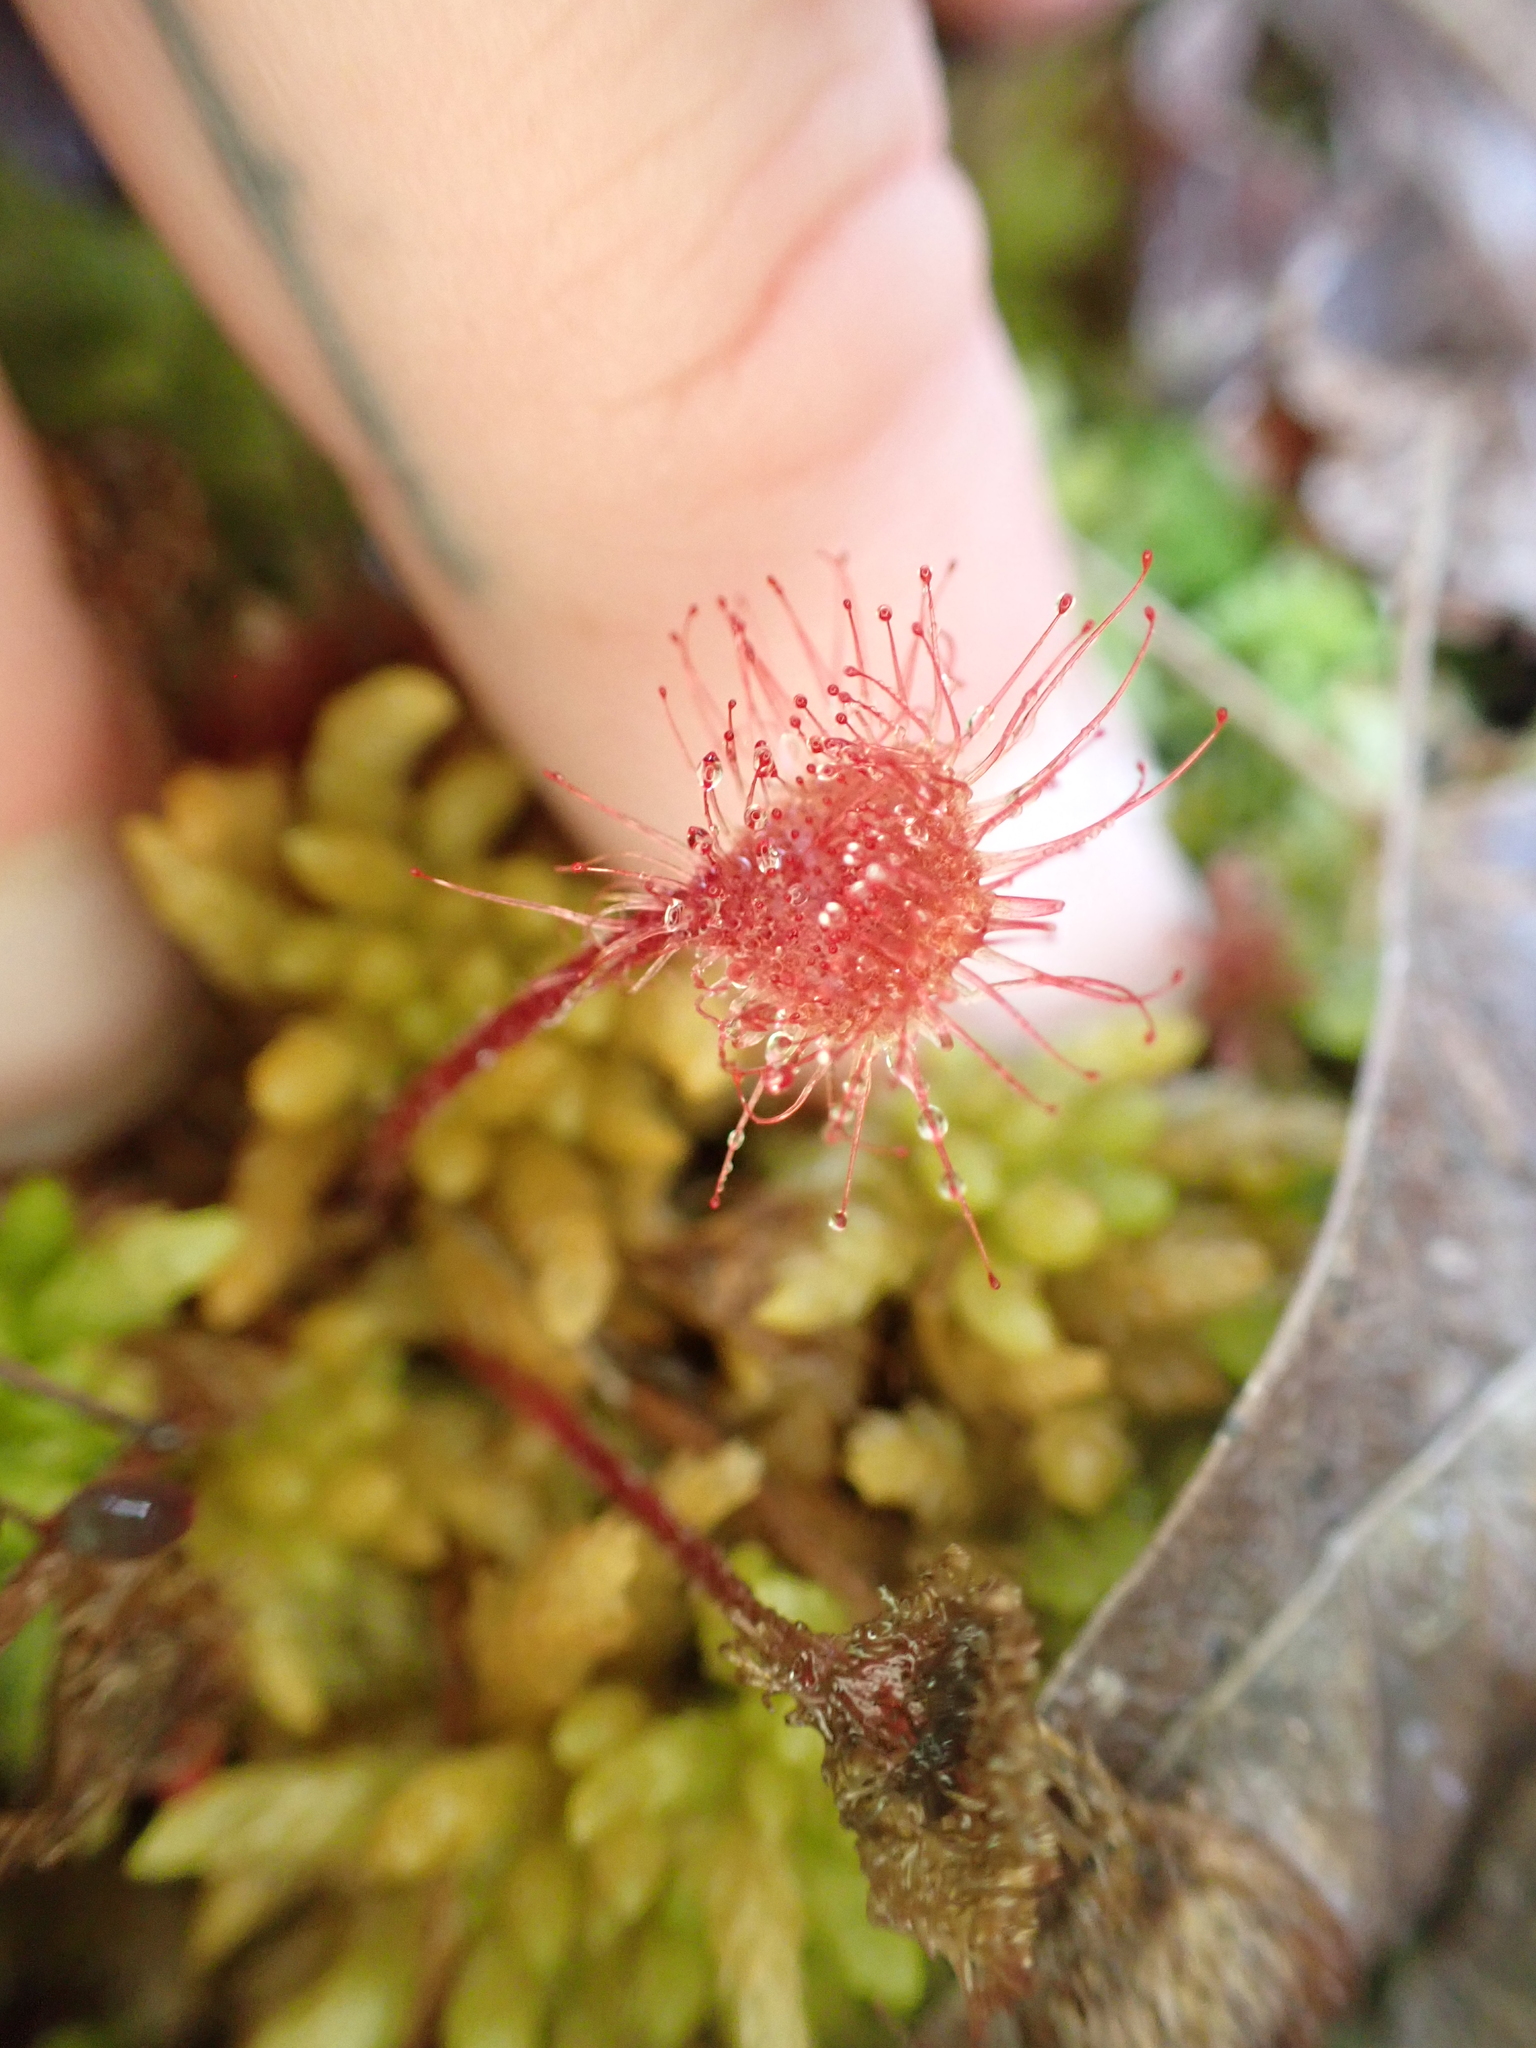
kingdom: Plantae
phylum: Tracheophyta
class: Magnoliopsida
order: Caryophyllales
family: Droseraceae
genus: Drosera
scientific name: Drosera rotundifolia
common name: Round-leaved sundew
